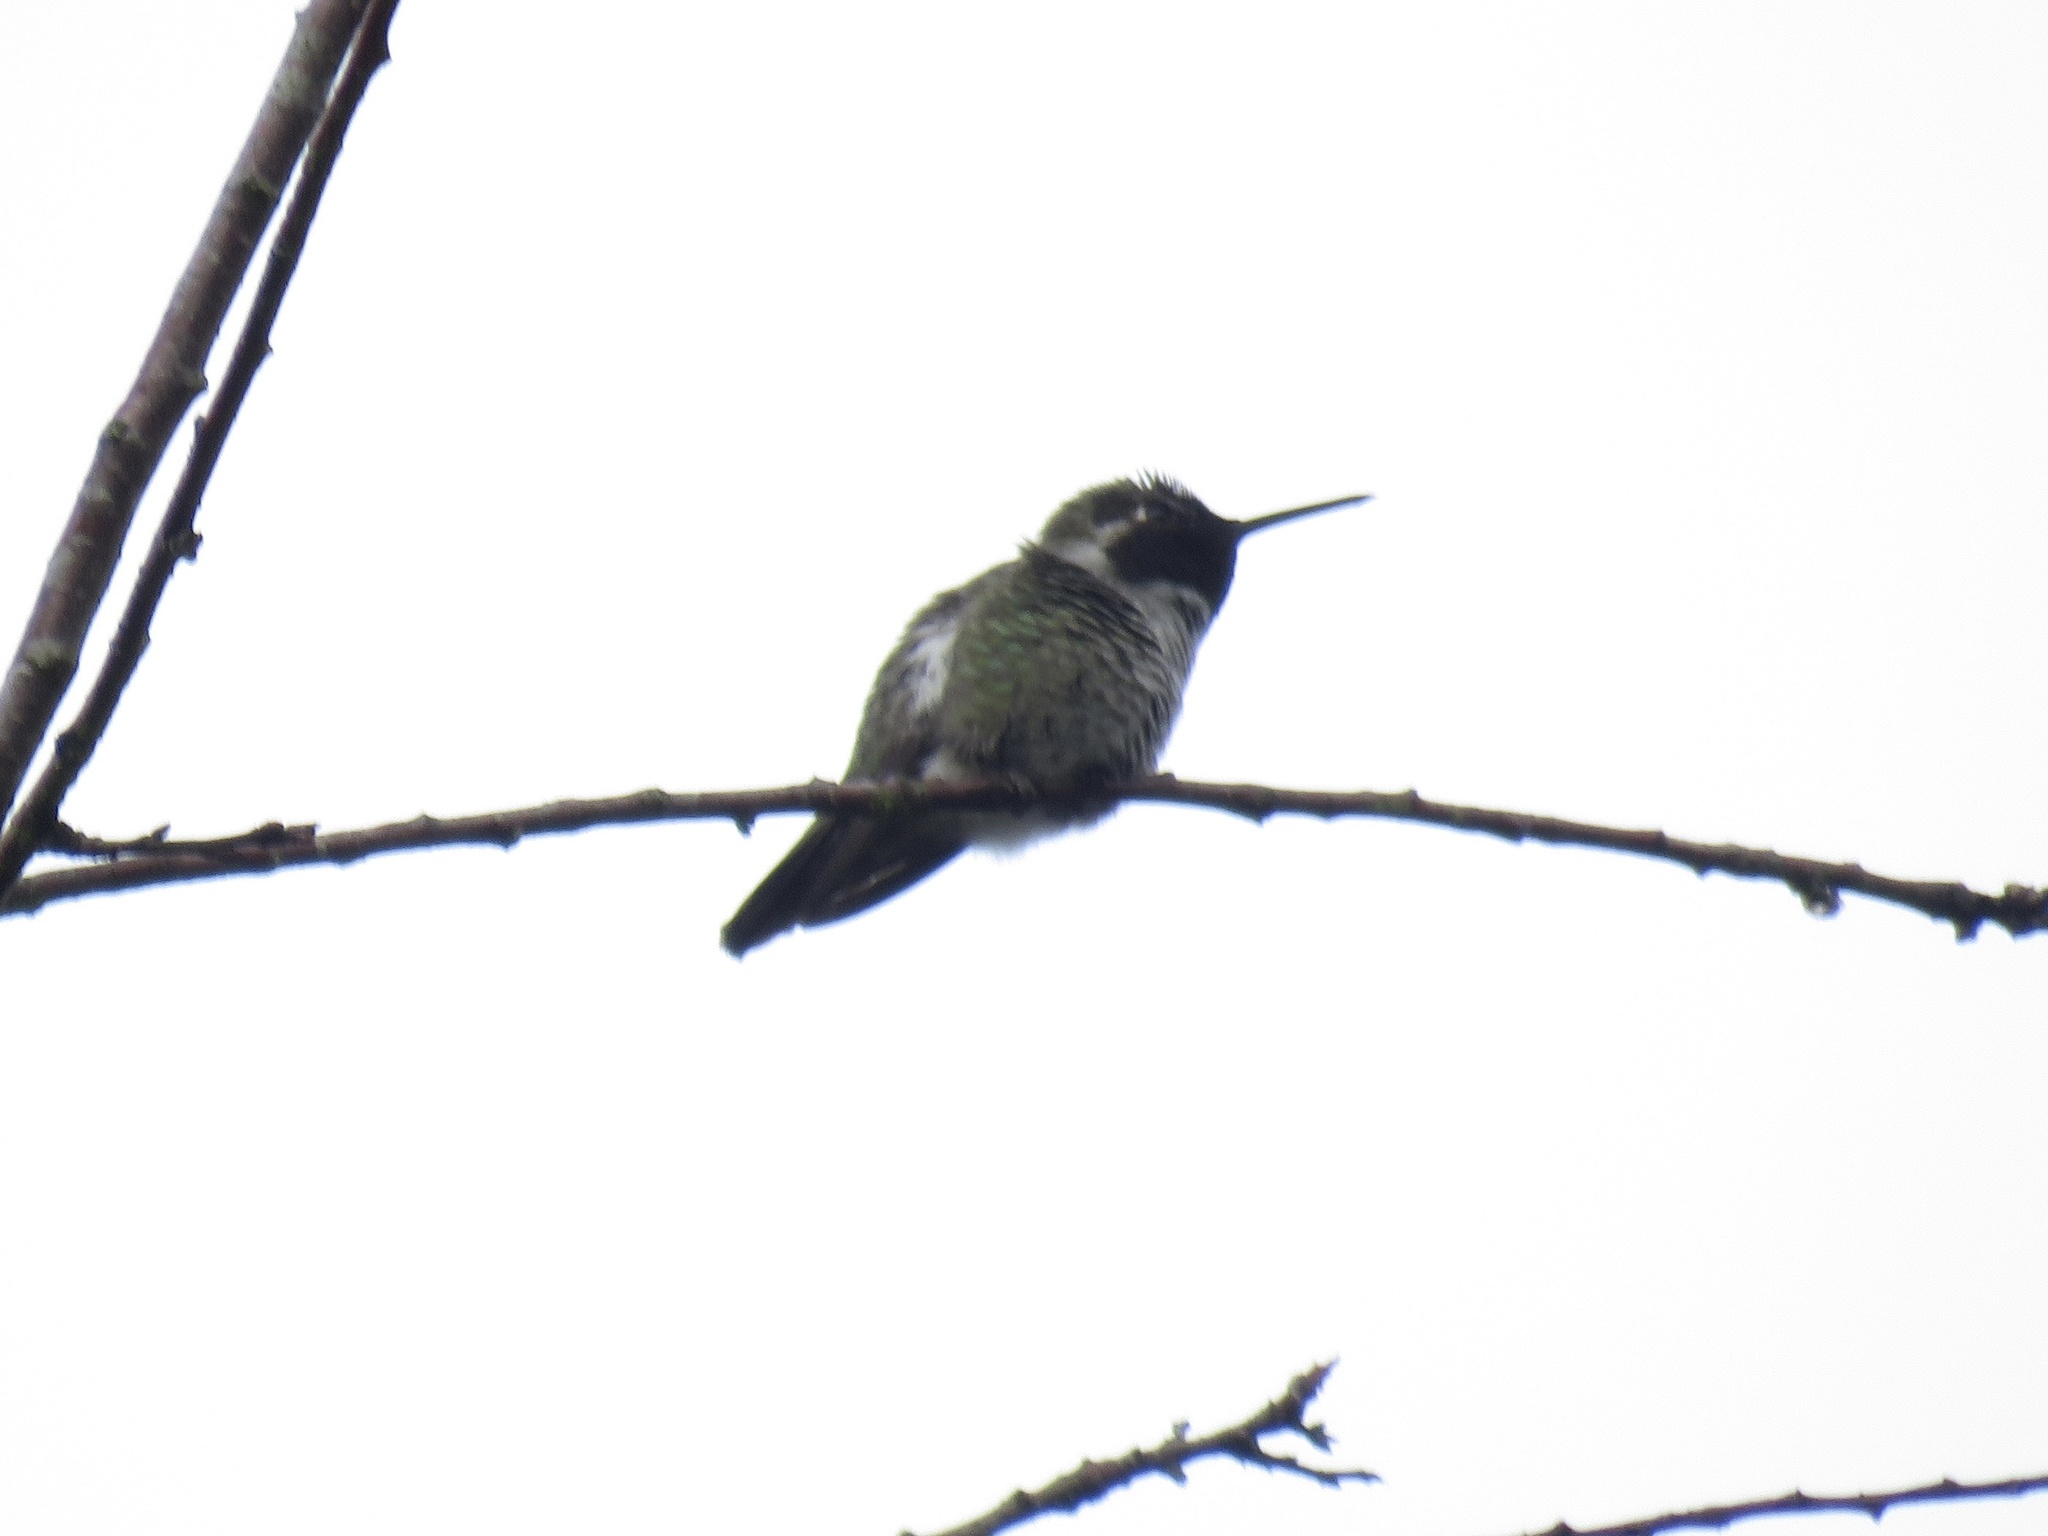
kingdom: Animalia
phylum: Chordata
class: Aves
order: Apodiformes
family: Trochilidae
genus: Calypte
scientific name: Calypte anna
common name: Anna's hummingbird
